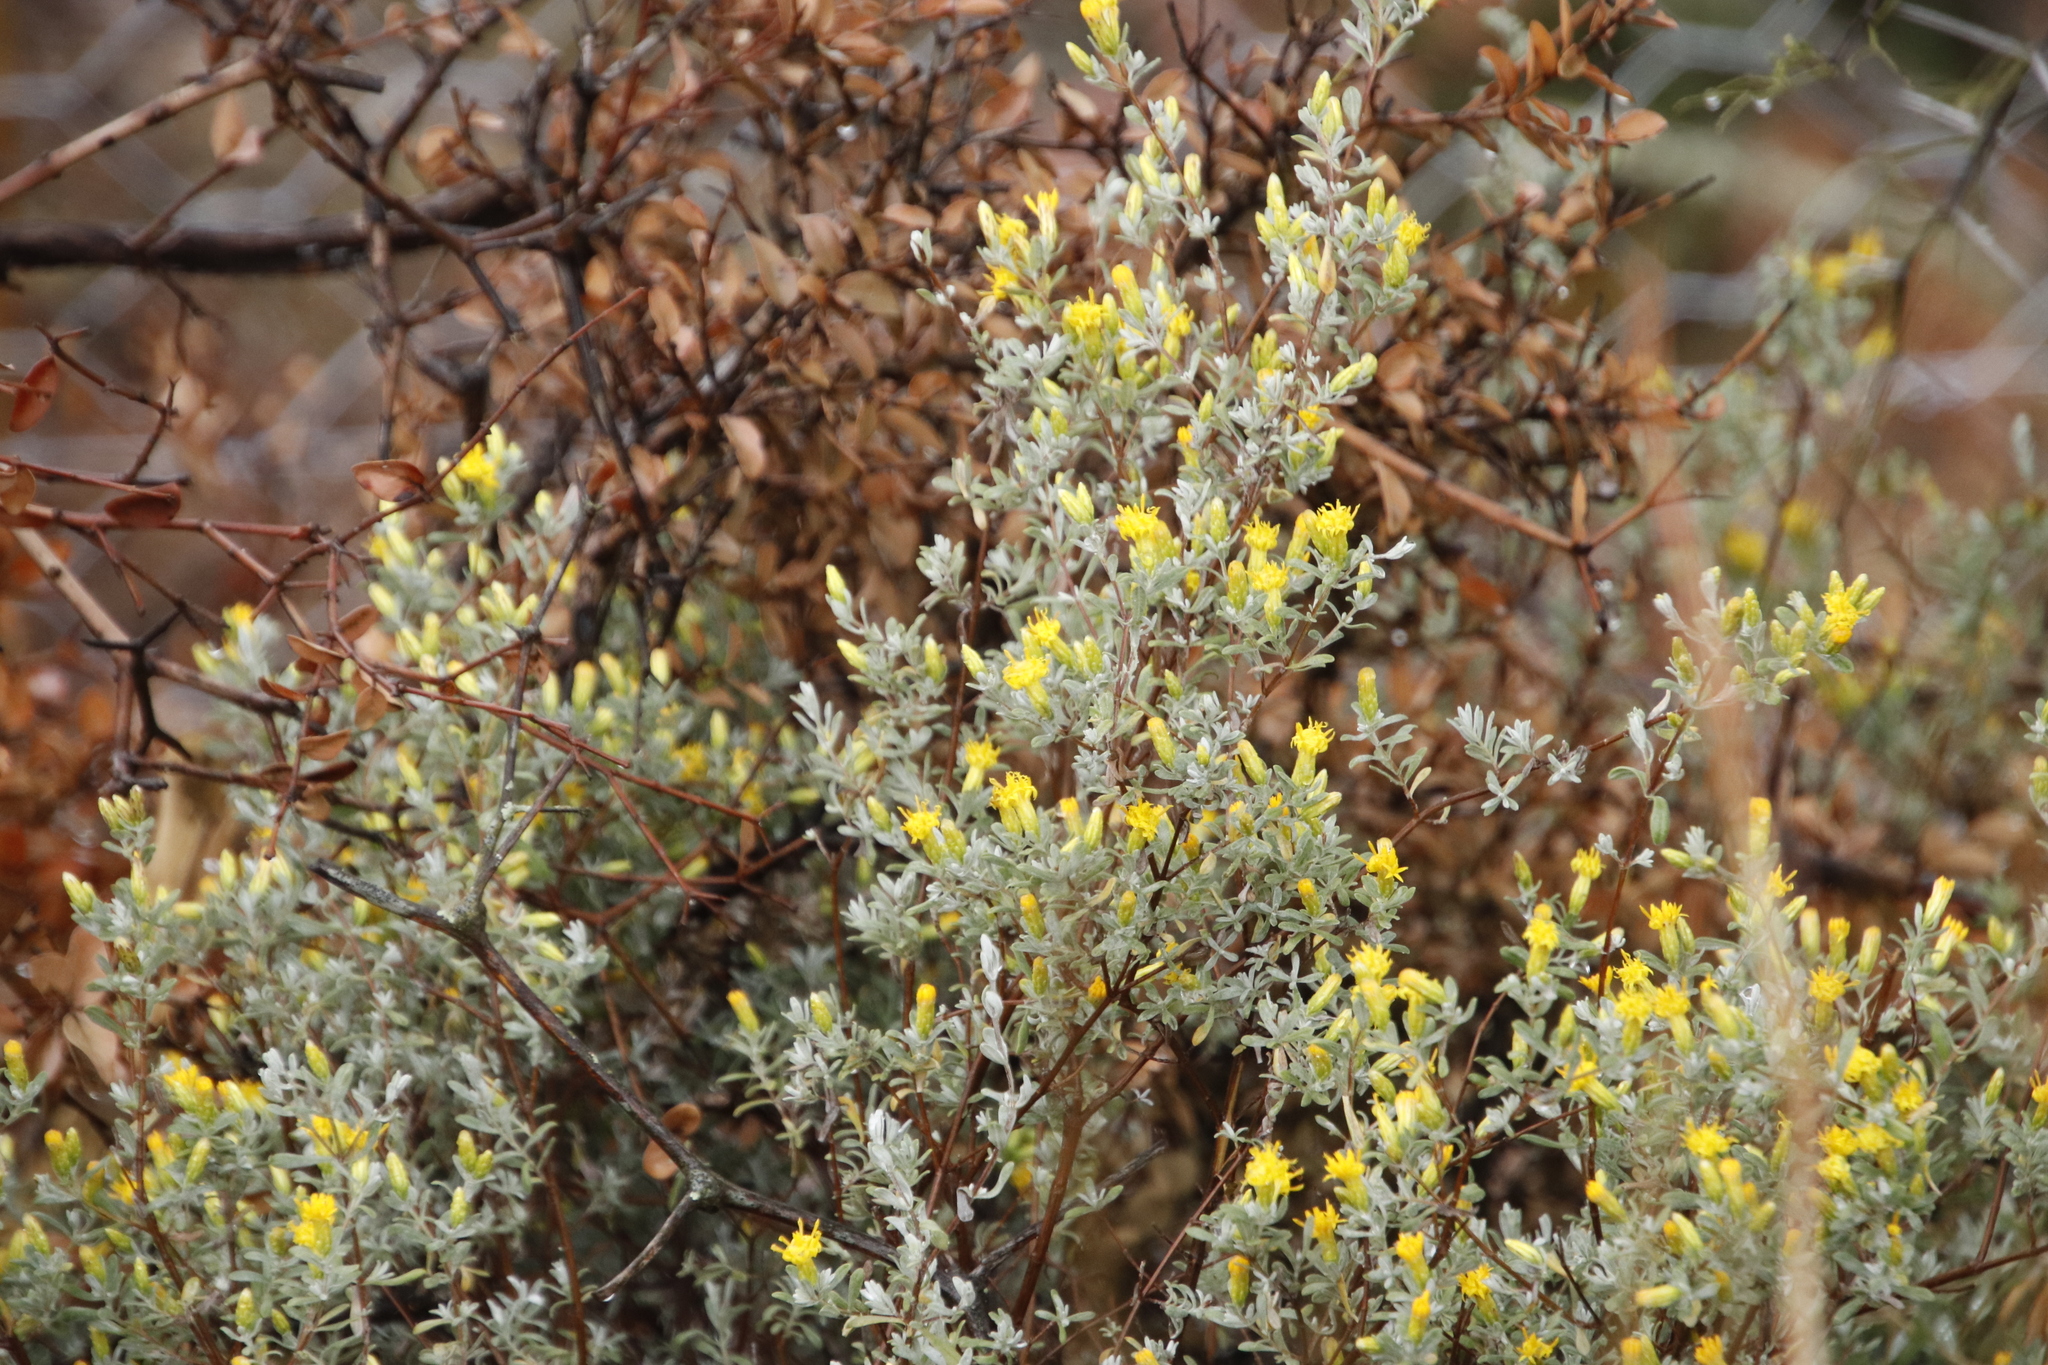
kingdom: Plantae
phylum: Tracheophyta
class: Magnoliopsida
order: Asterales
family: Asteraceae
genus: Pteronia
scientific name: Pteronia incana
